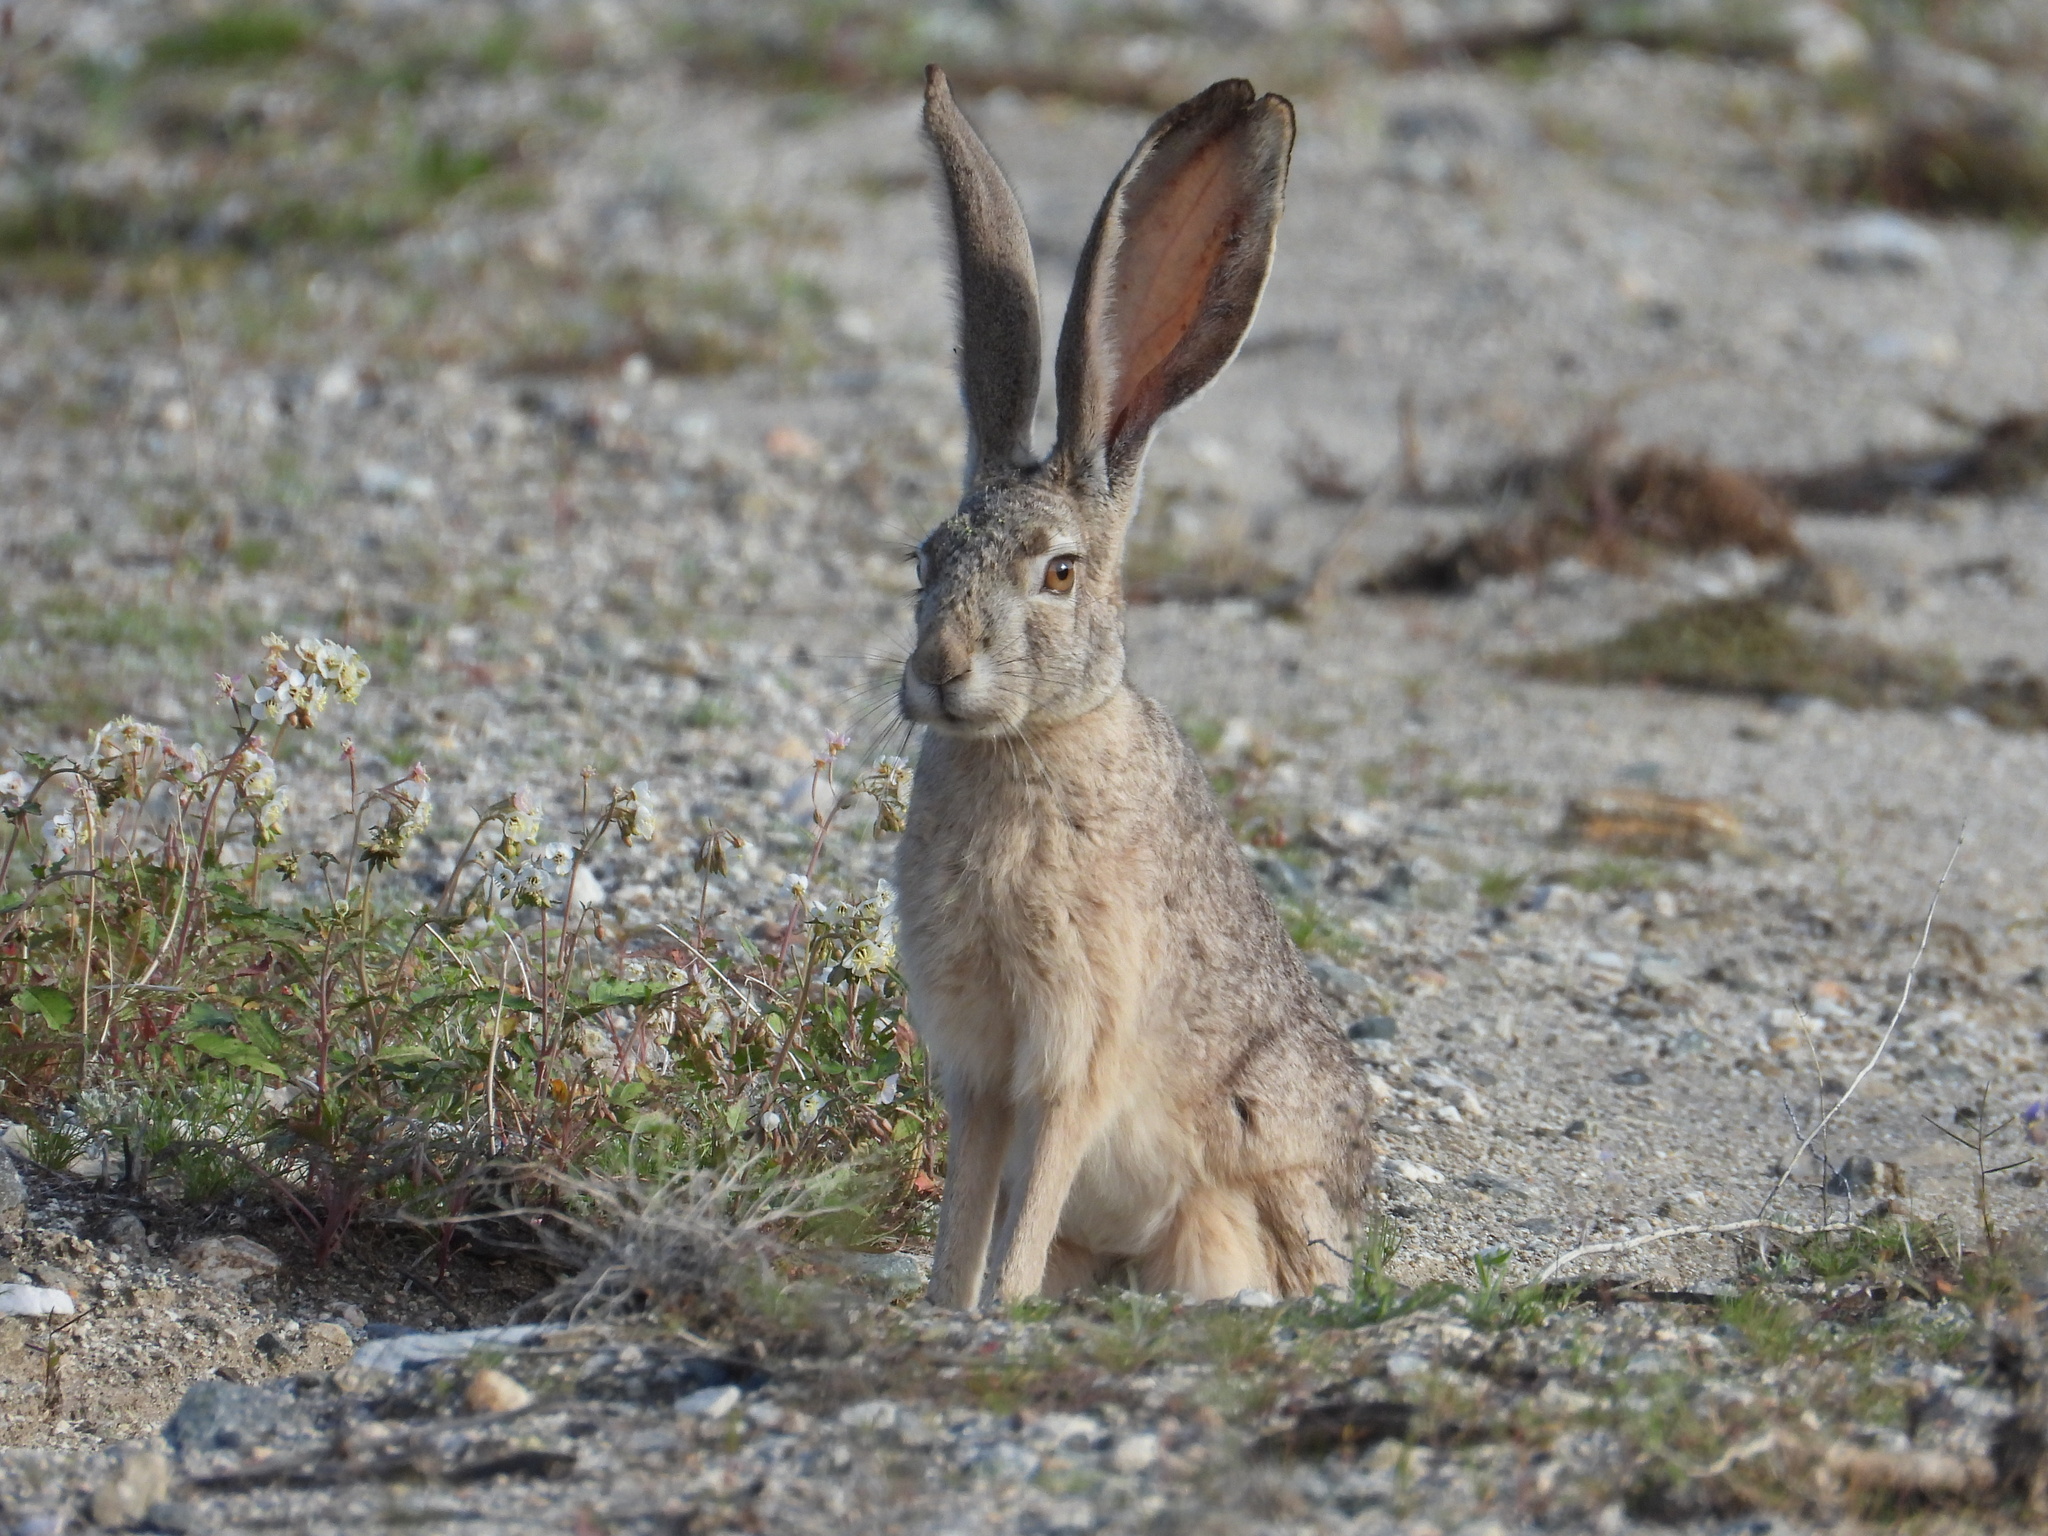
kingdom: Animalia
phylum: Chordata
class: Mammalia
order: Lagomorpha
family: Leporidae
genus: Lepus
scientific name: Lepus californicus
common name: Black-tailed jackrabbit
